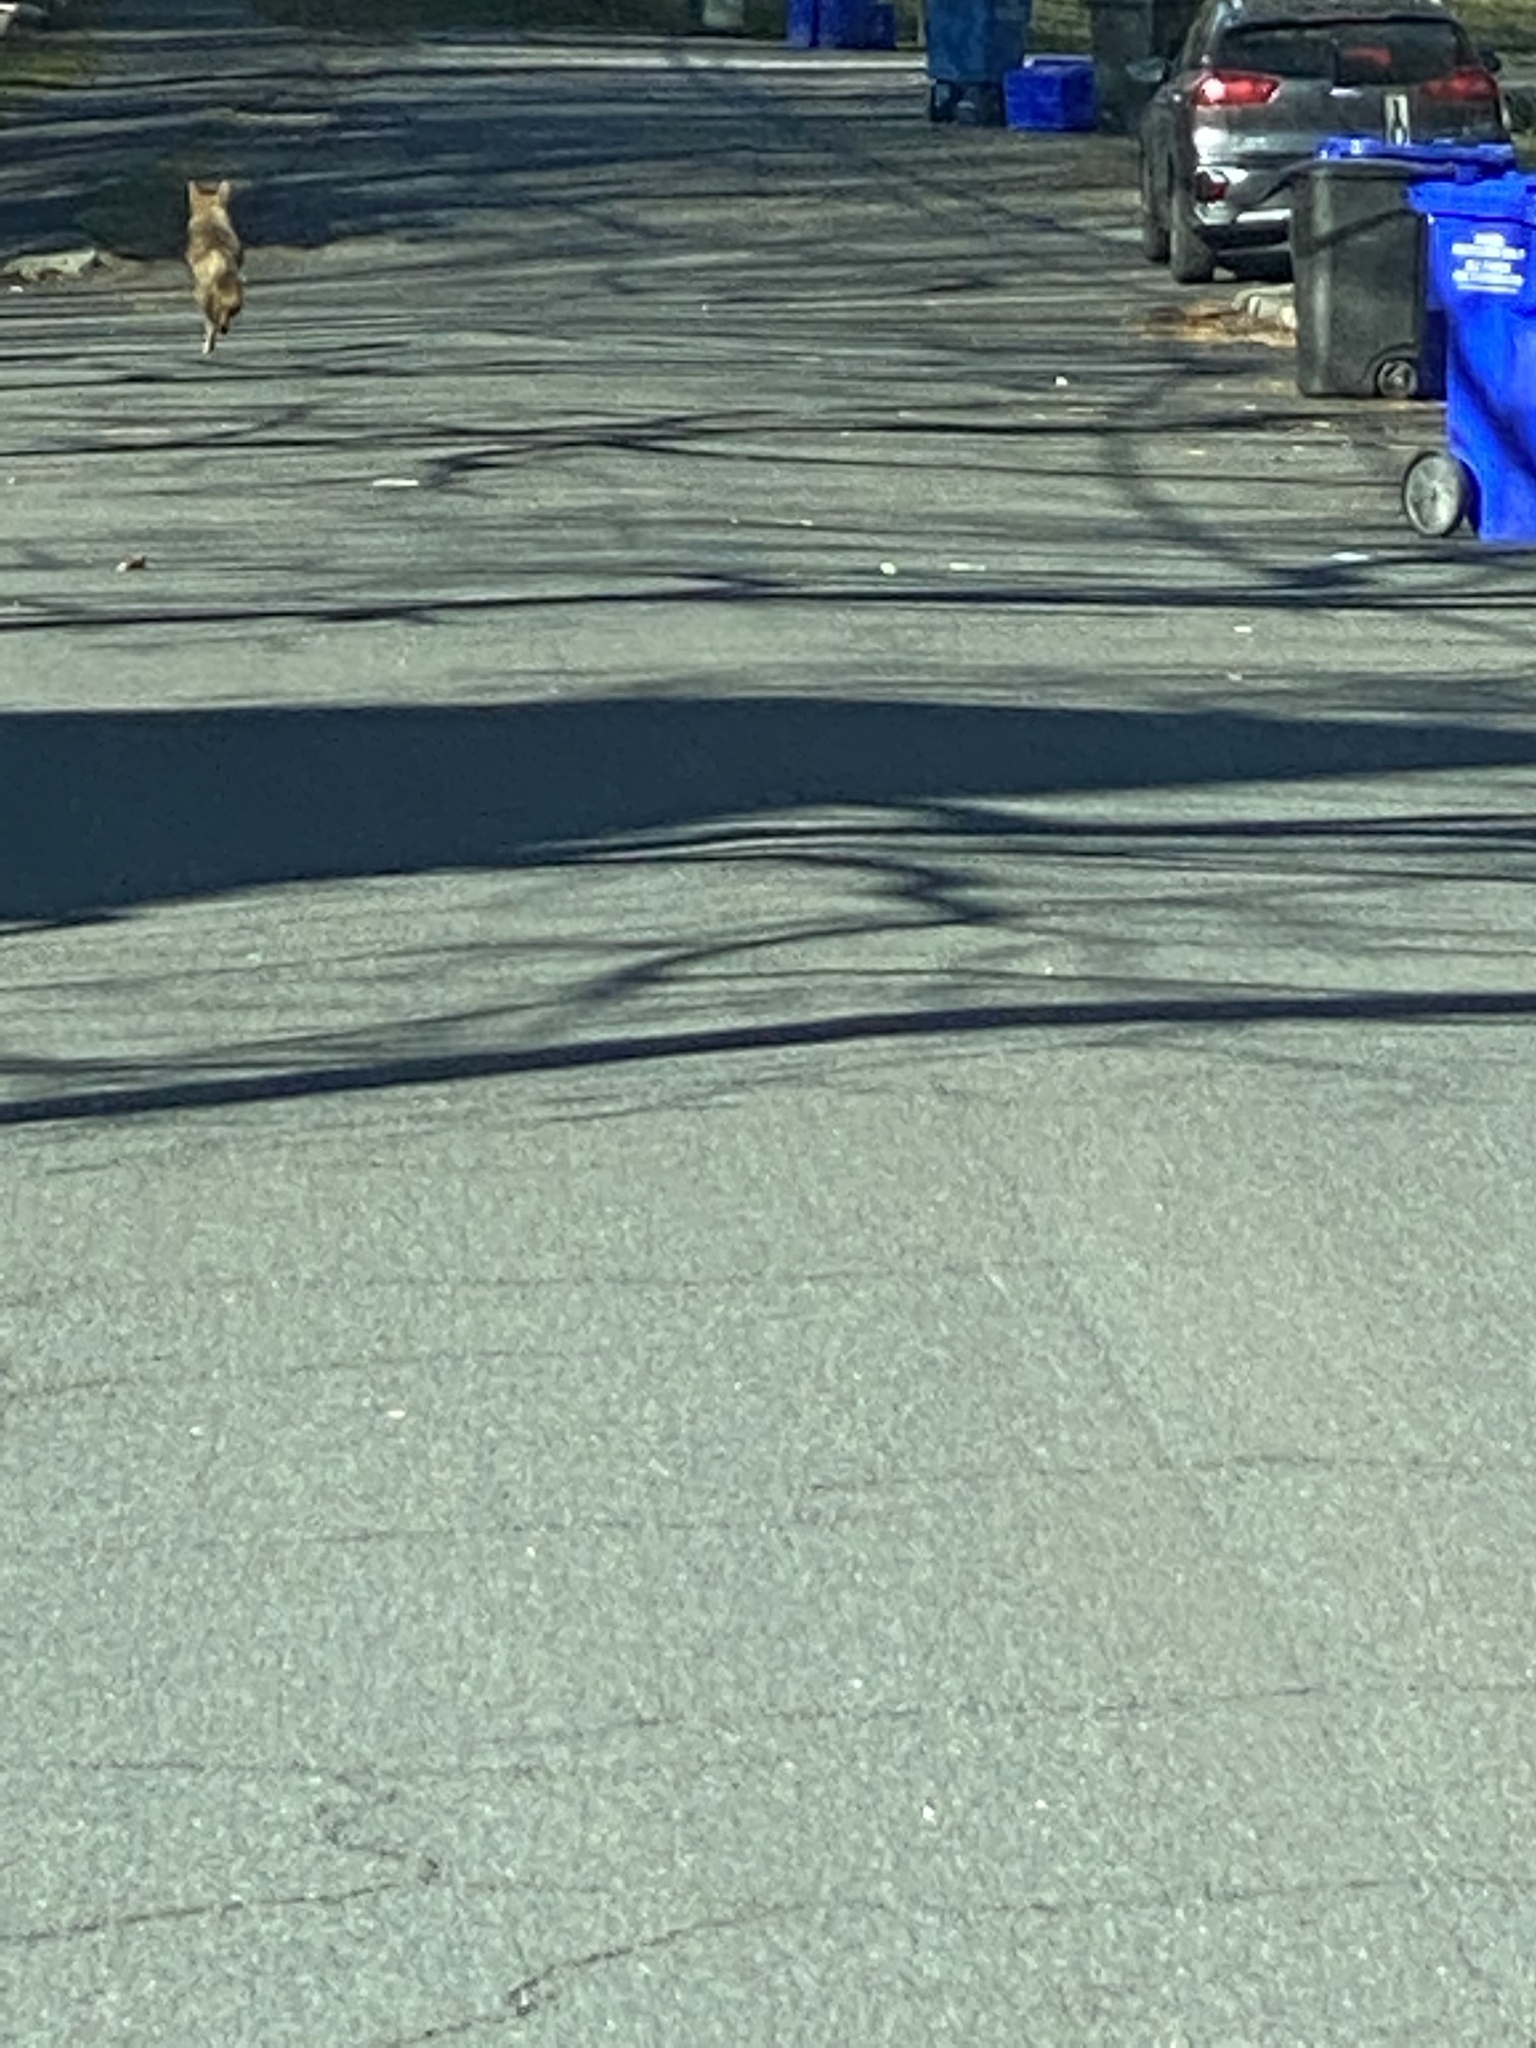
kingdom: Animalia
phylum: Chordata
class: Mammalia
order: Carnivora
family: Canidae
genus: Canis
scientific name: Canis latrans
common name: Coyote
